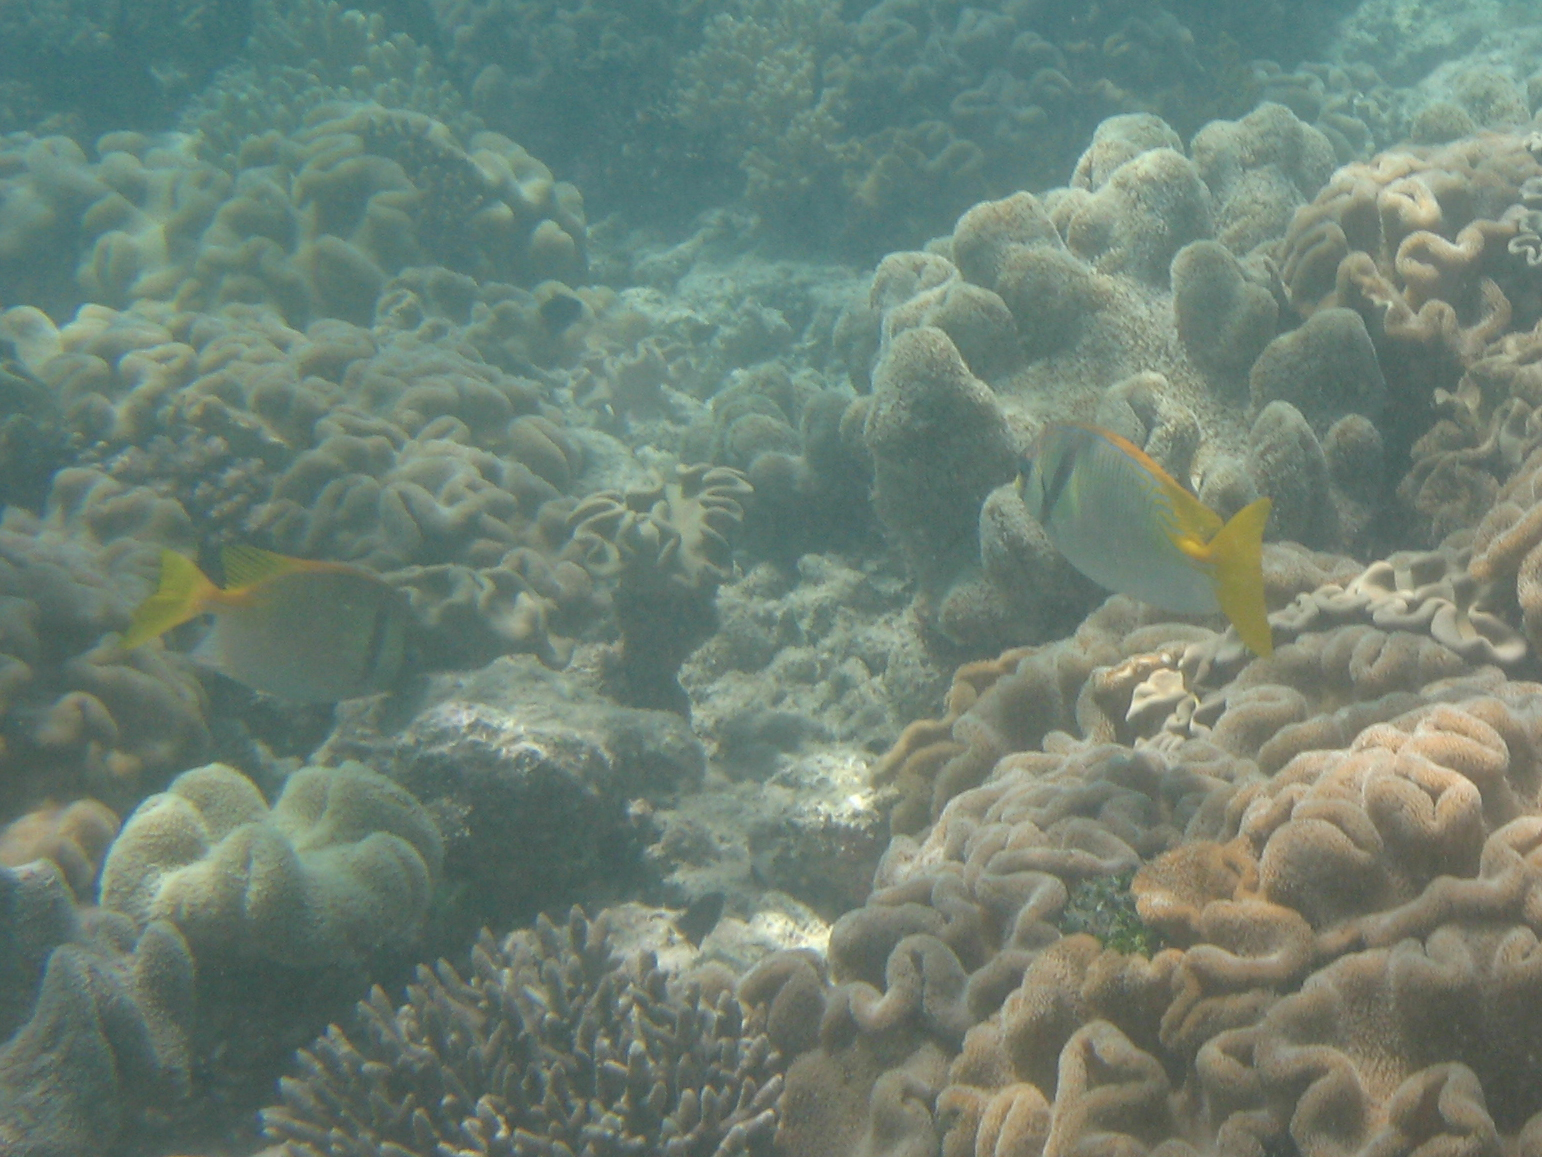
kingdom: Animalia
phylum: Chordata
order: Perciformes
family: Siganidae
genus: Siganus
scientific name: Siganus doliatus
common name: Barred spinefoot
